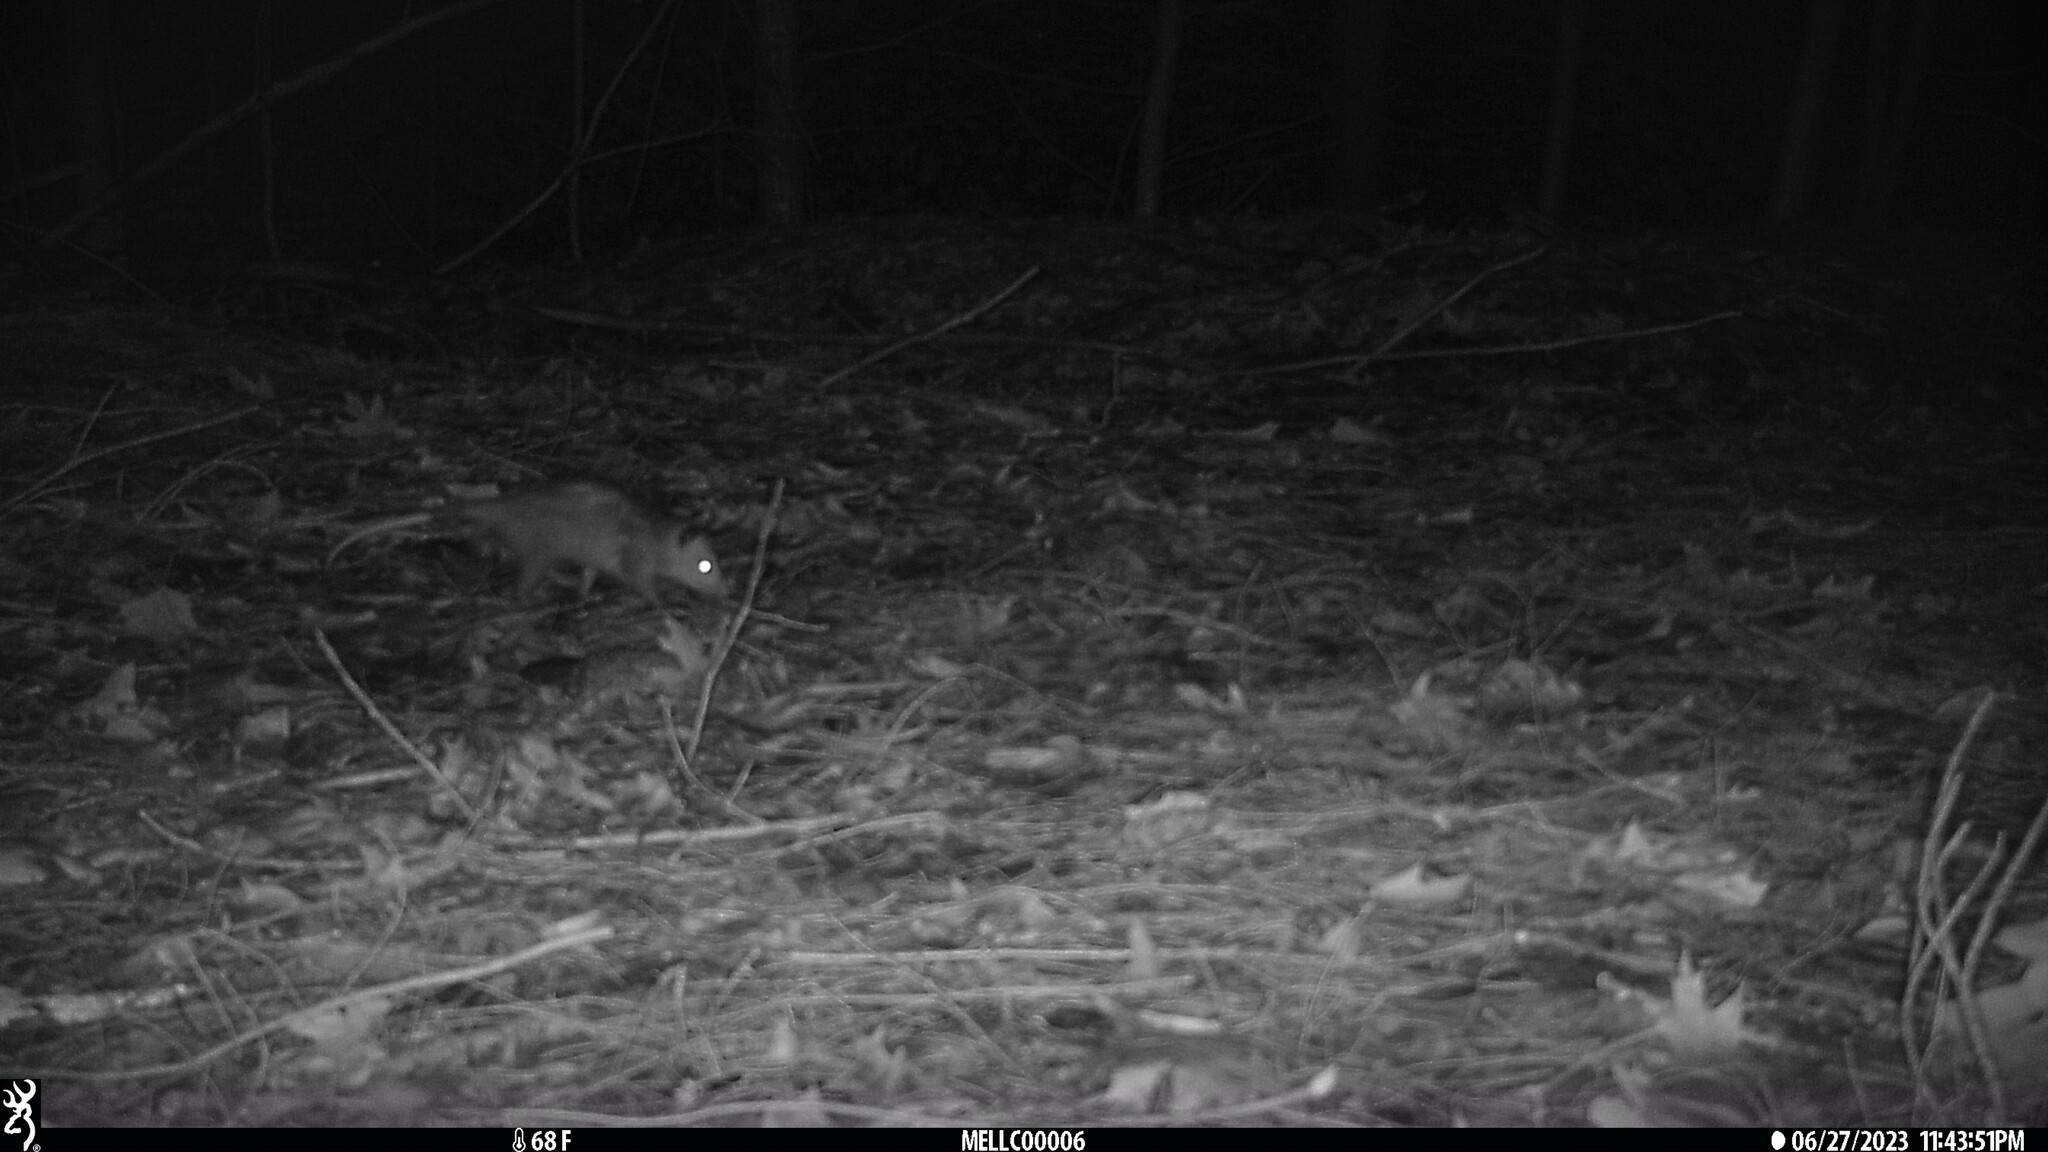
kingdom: Animalia
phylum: Chordata
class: Mammalia
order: Didelphimorphia
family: Didelphidae
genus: Didelphis
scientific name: Didelphis virginiana
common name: Virginia opossum
